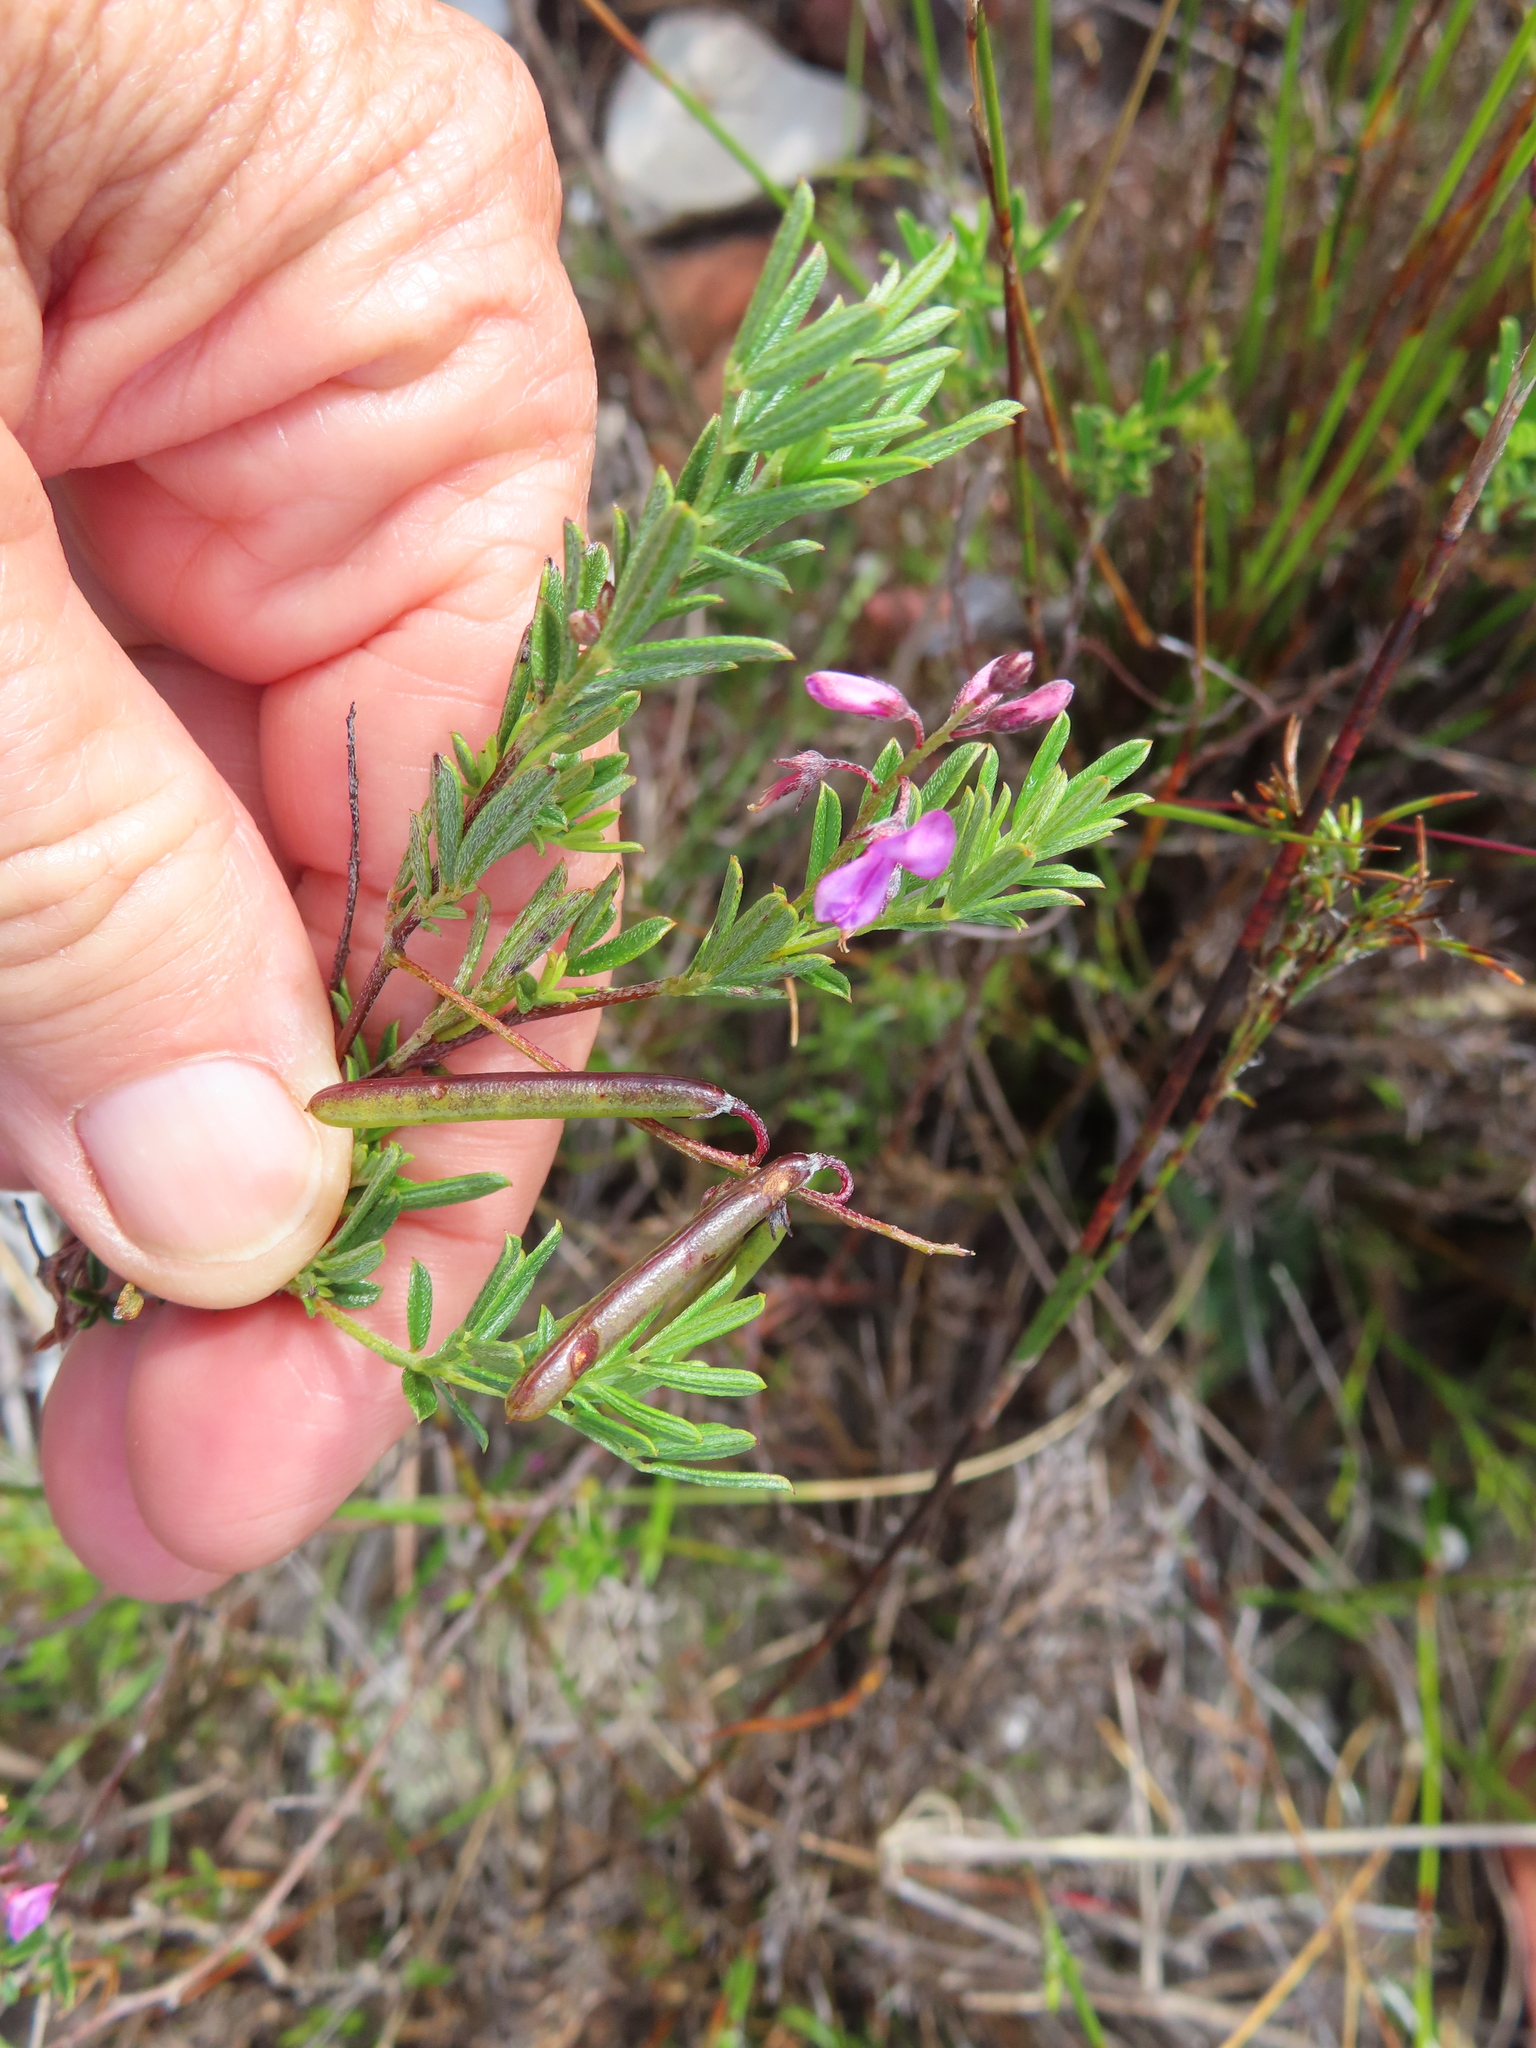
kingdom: Plantae
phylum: Tracheophyta
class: Magnoliopsida
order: Fabales
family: Fabaceae
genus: Indigofera
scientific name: Indigofera angustifolia
